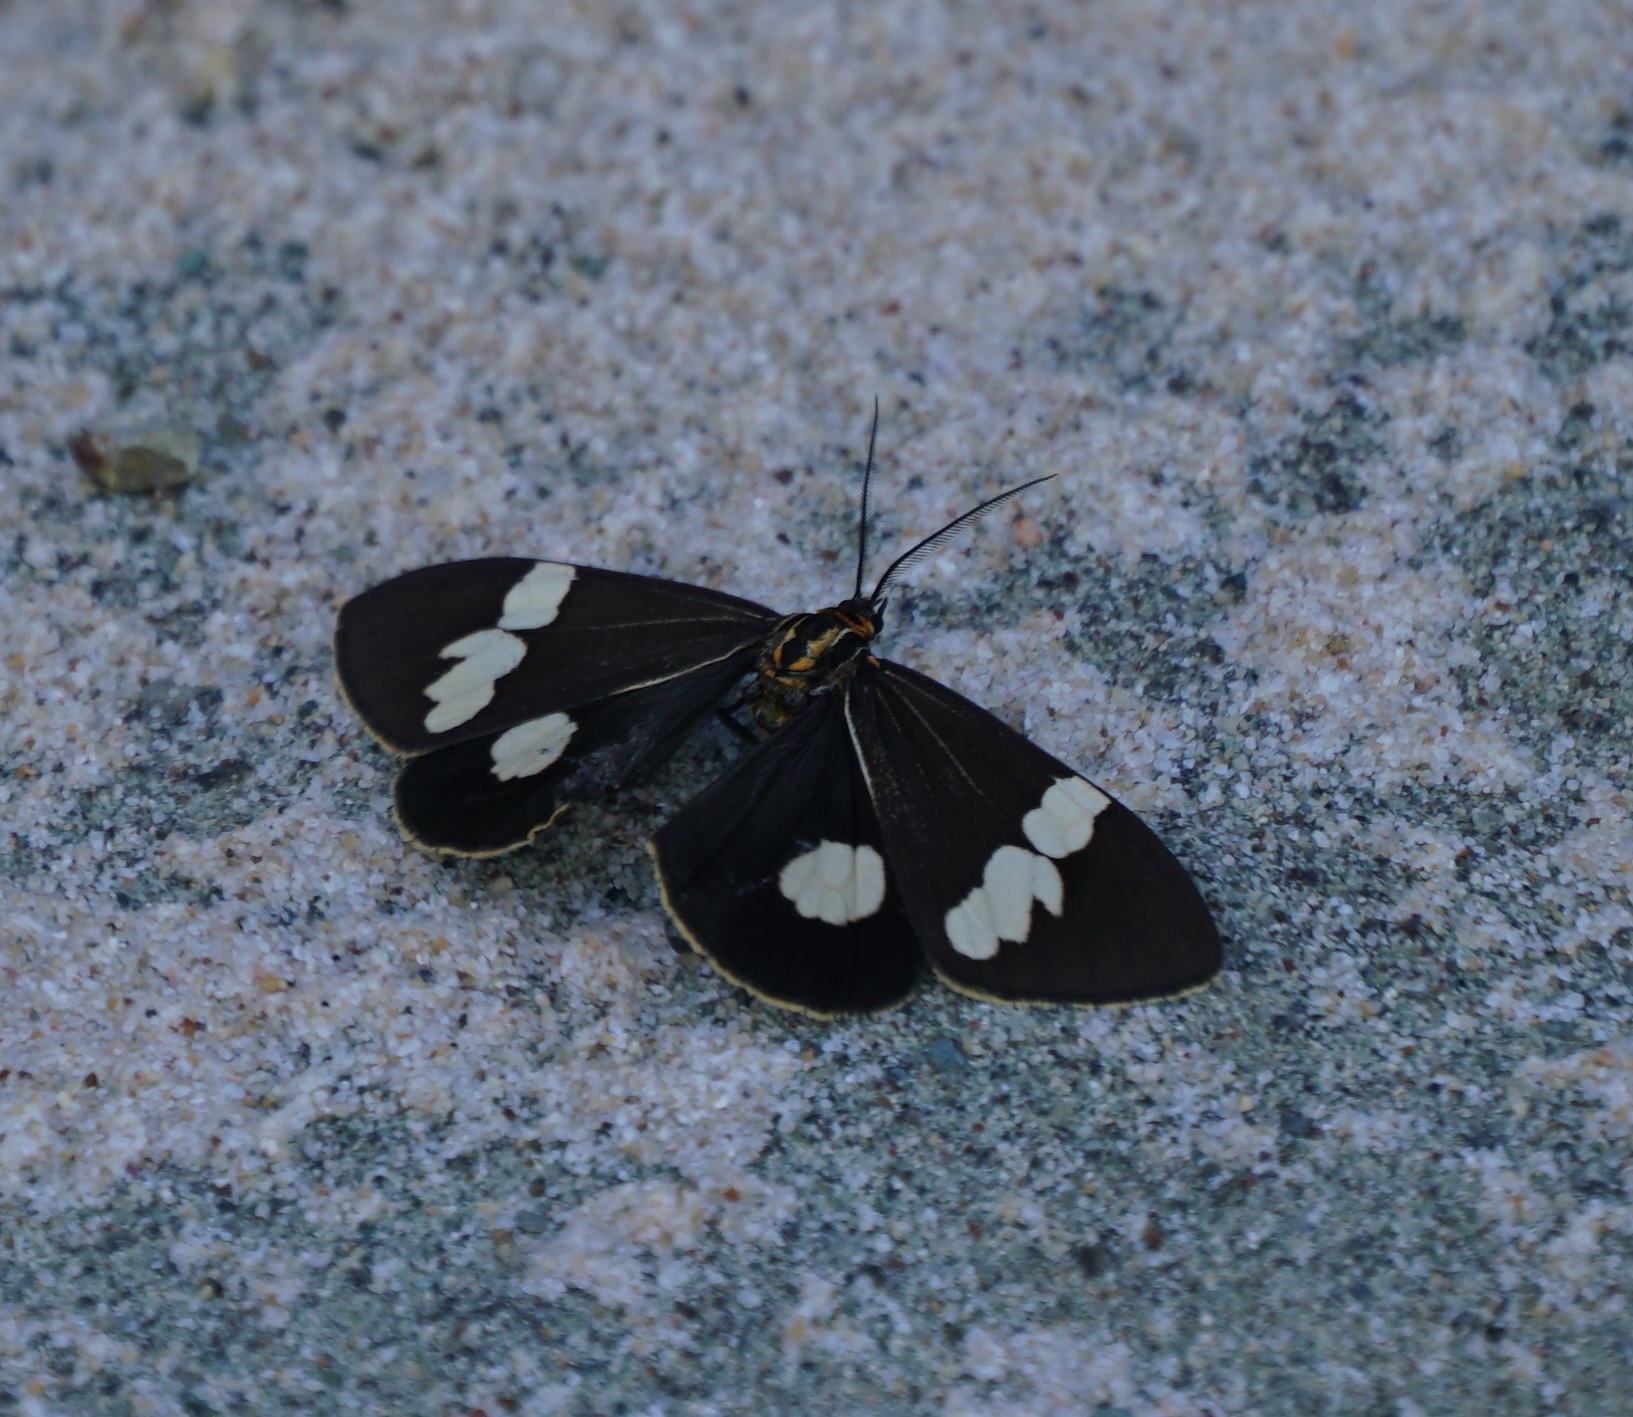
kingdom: Animalia
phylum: Arthropoda
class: Insecta
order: Lepidoptera
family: Erebidae
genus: Nyctemera
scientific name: Nyctemera amicus
